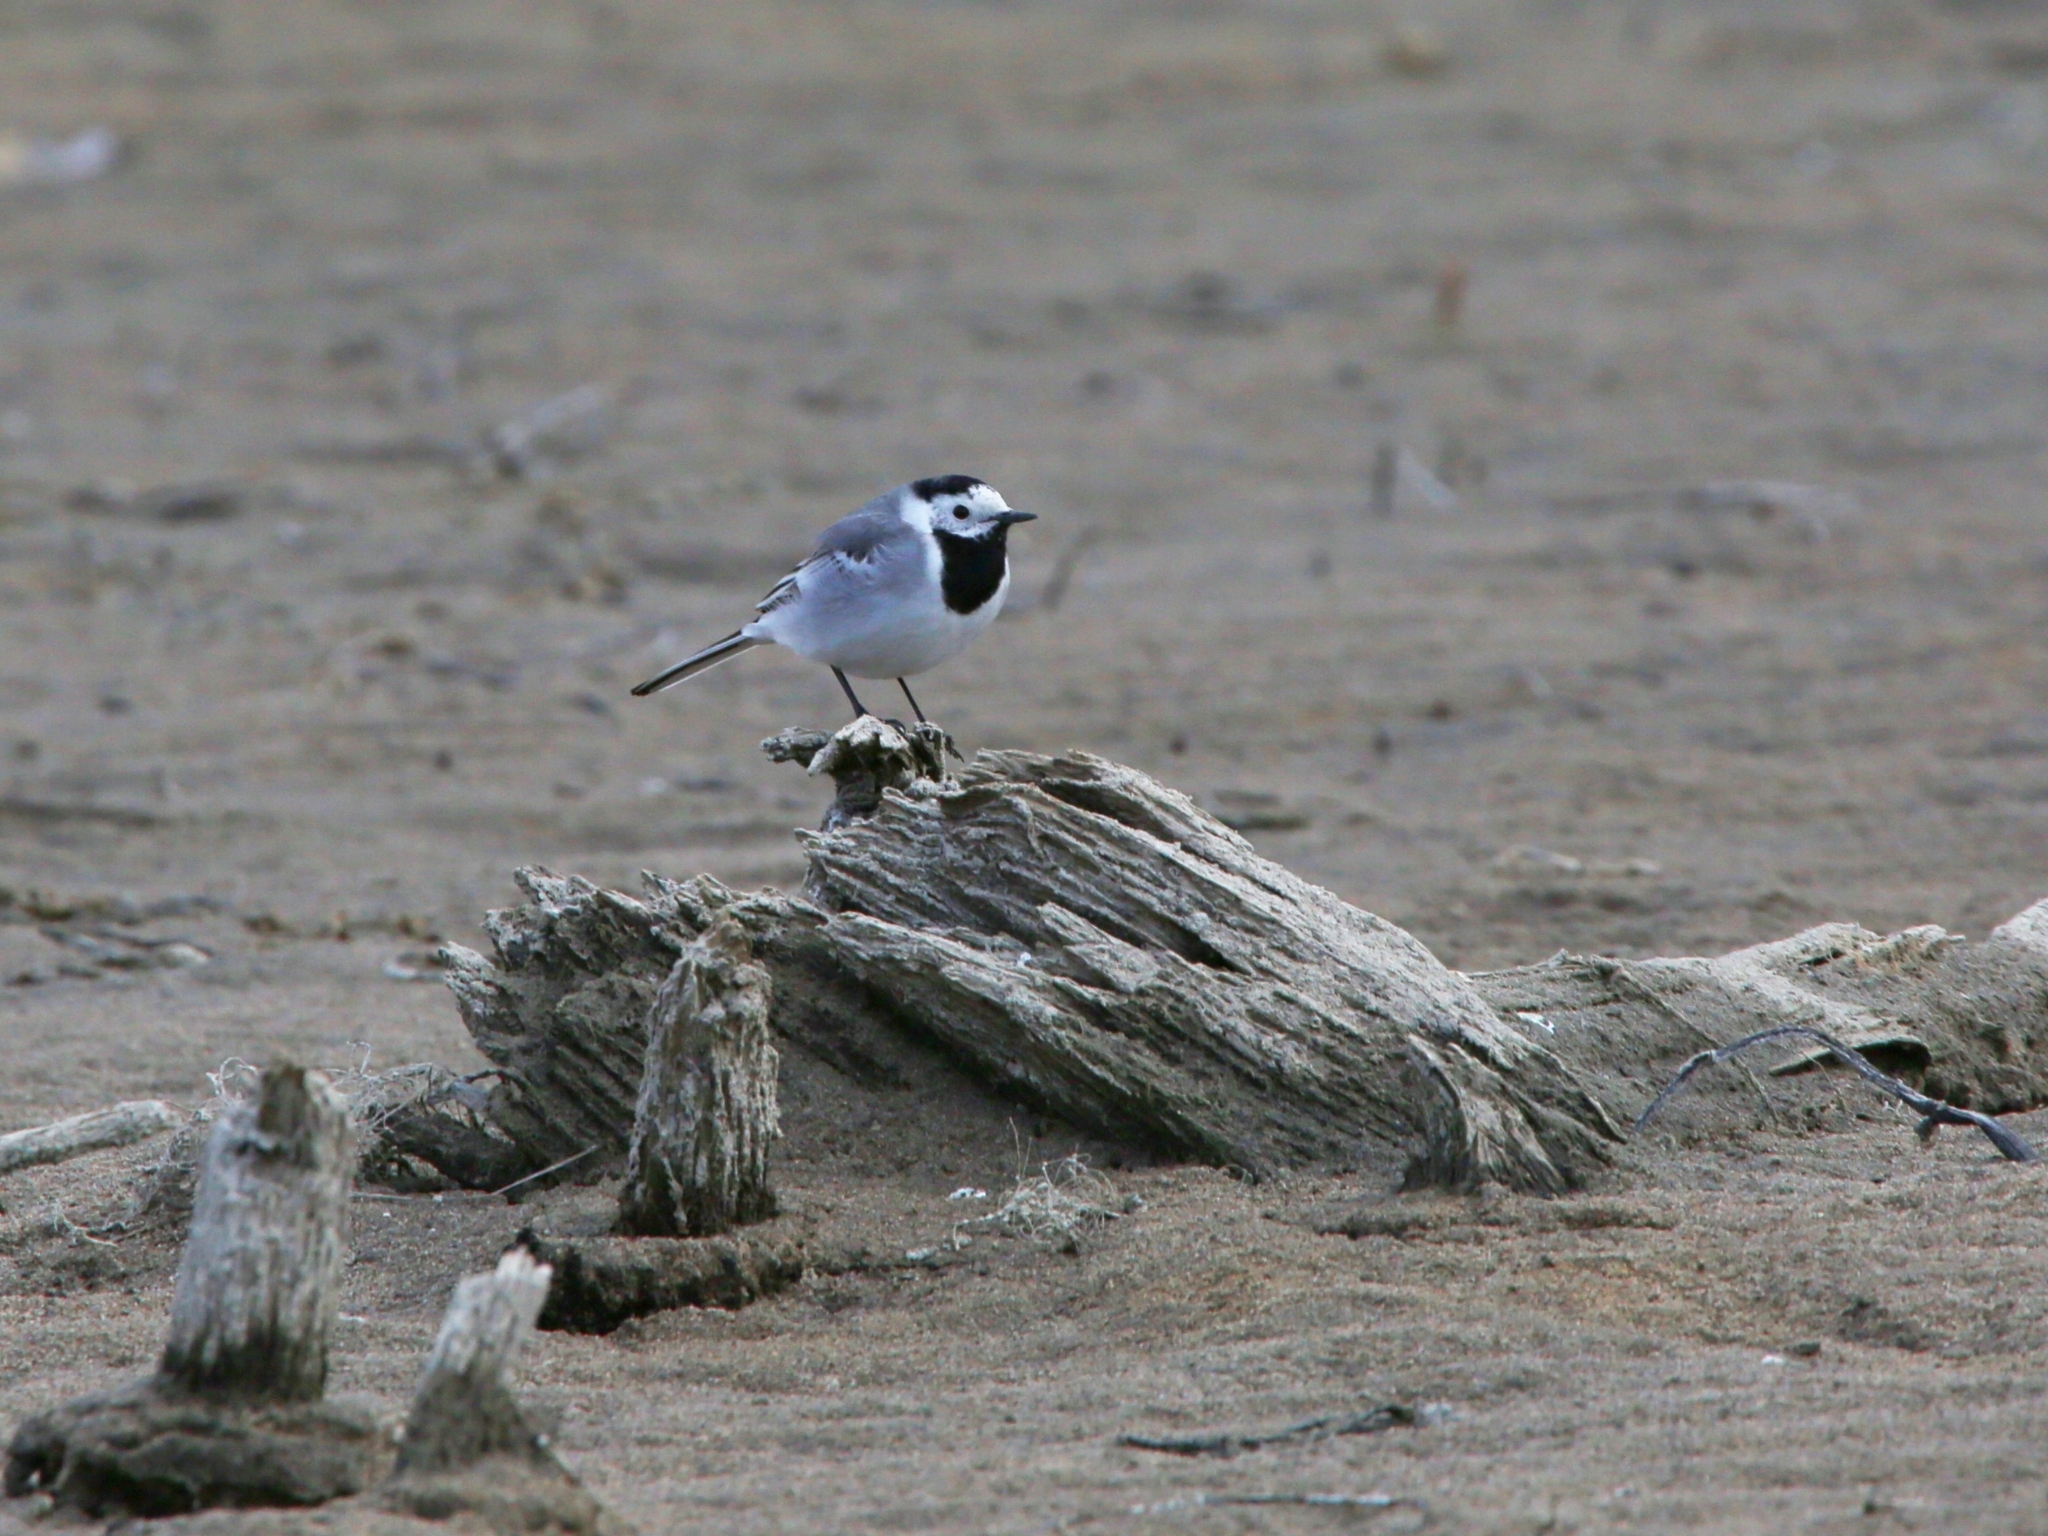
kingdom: Animalia
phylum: Chordata
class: Aves
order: Passeriformes
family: Motacillidae
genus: Motacilla
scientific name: Motacilla alba
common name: White wagtail
